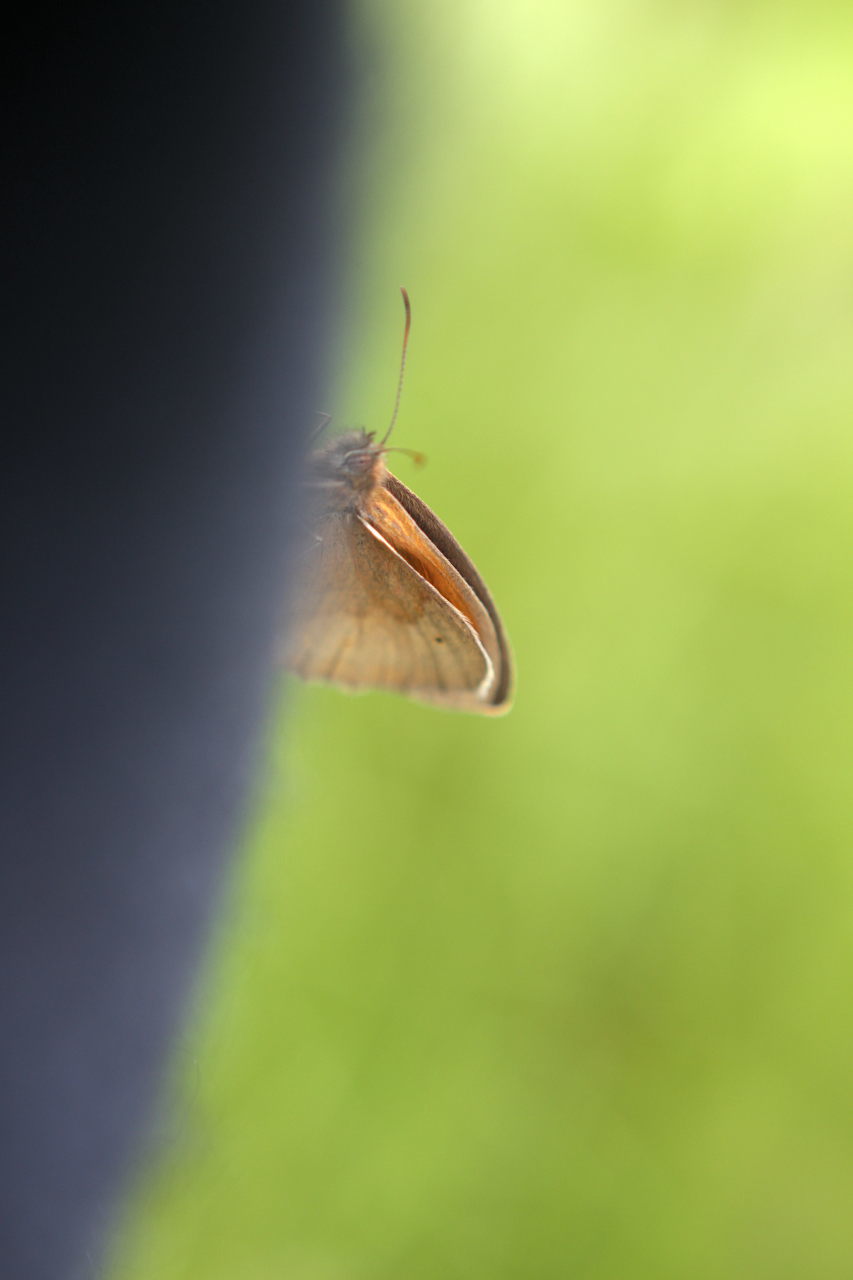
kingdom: Animalia
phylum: Arthropoda
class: Insecta
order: Lepidoptera
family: Nymphalidae
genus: Maniola
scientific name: Maniola jurtina
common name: Meadow brown
